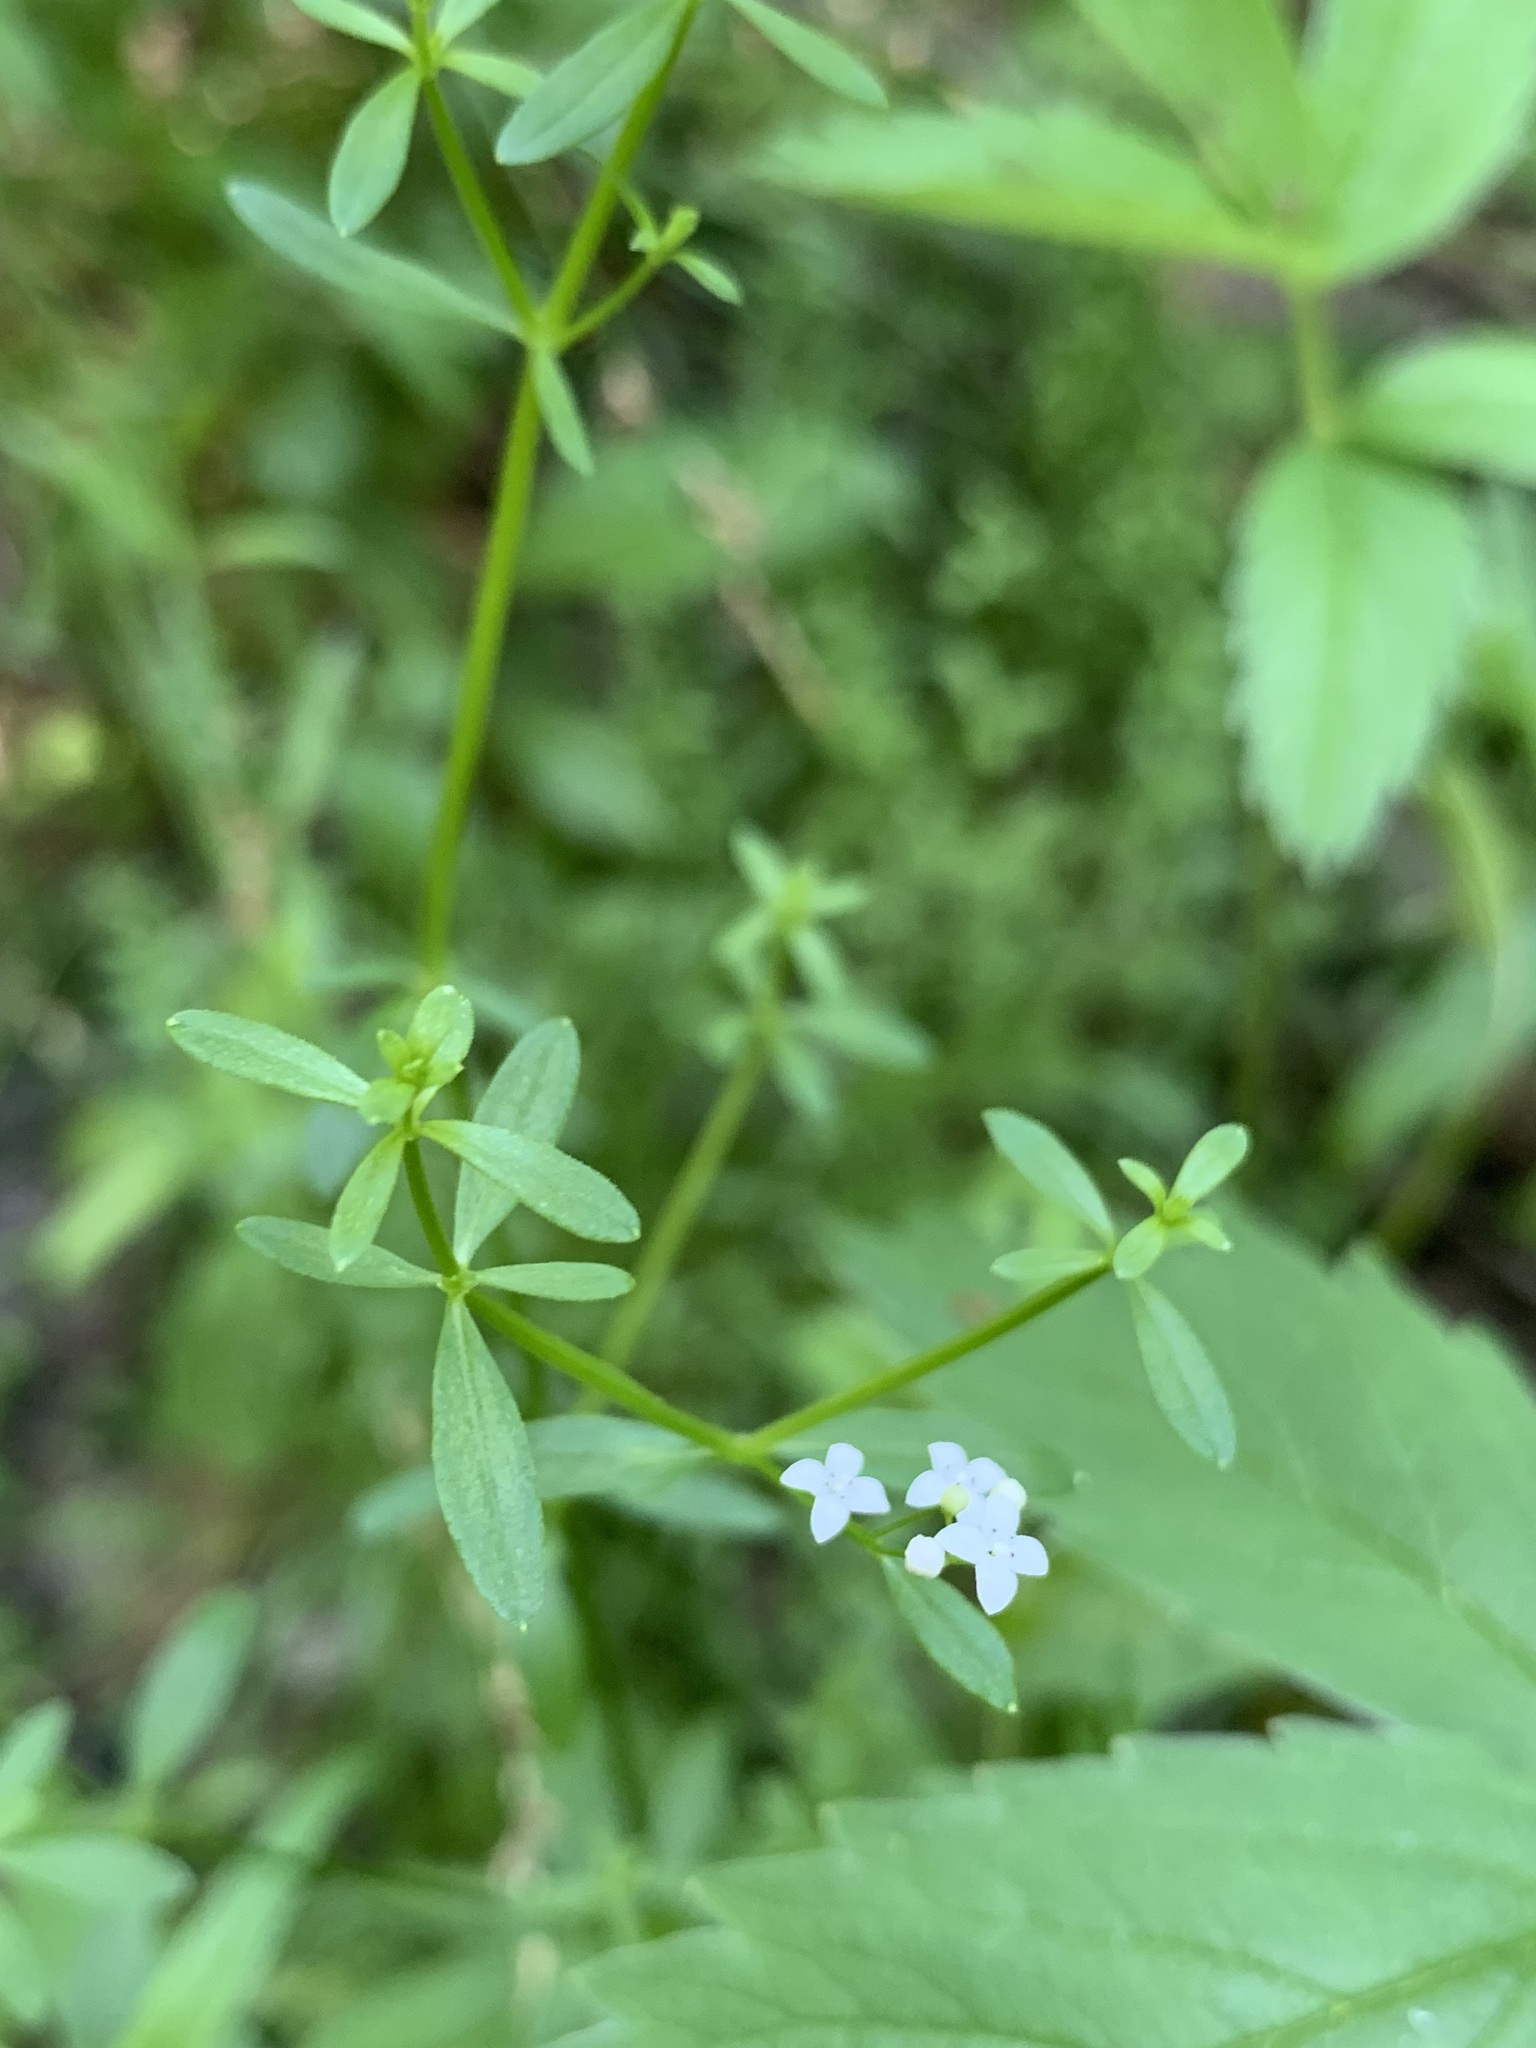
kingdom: Plantae
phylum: Tracheophyta
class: Magnoliopsida
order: Gentianales
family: Rubiaceae
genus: Galium
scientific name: Galium palustre
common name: Common marsh-bedstraw
